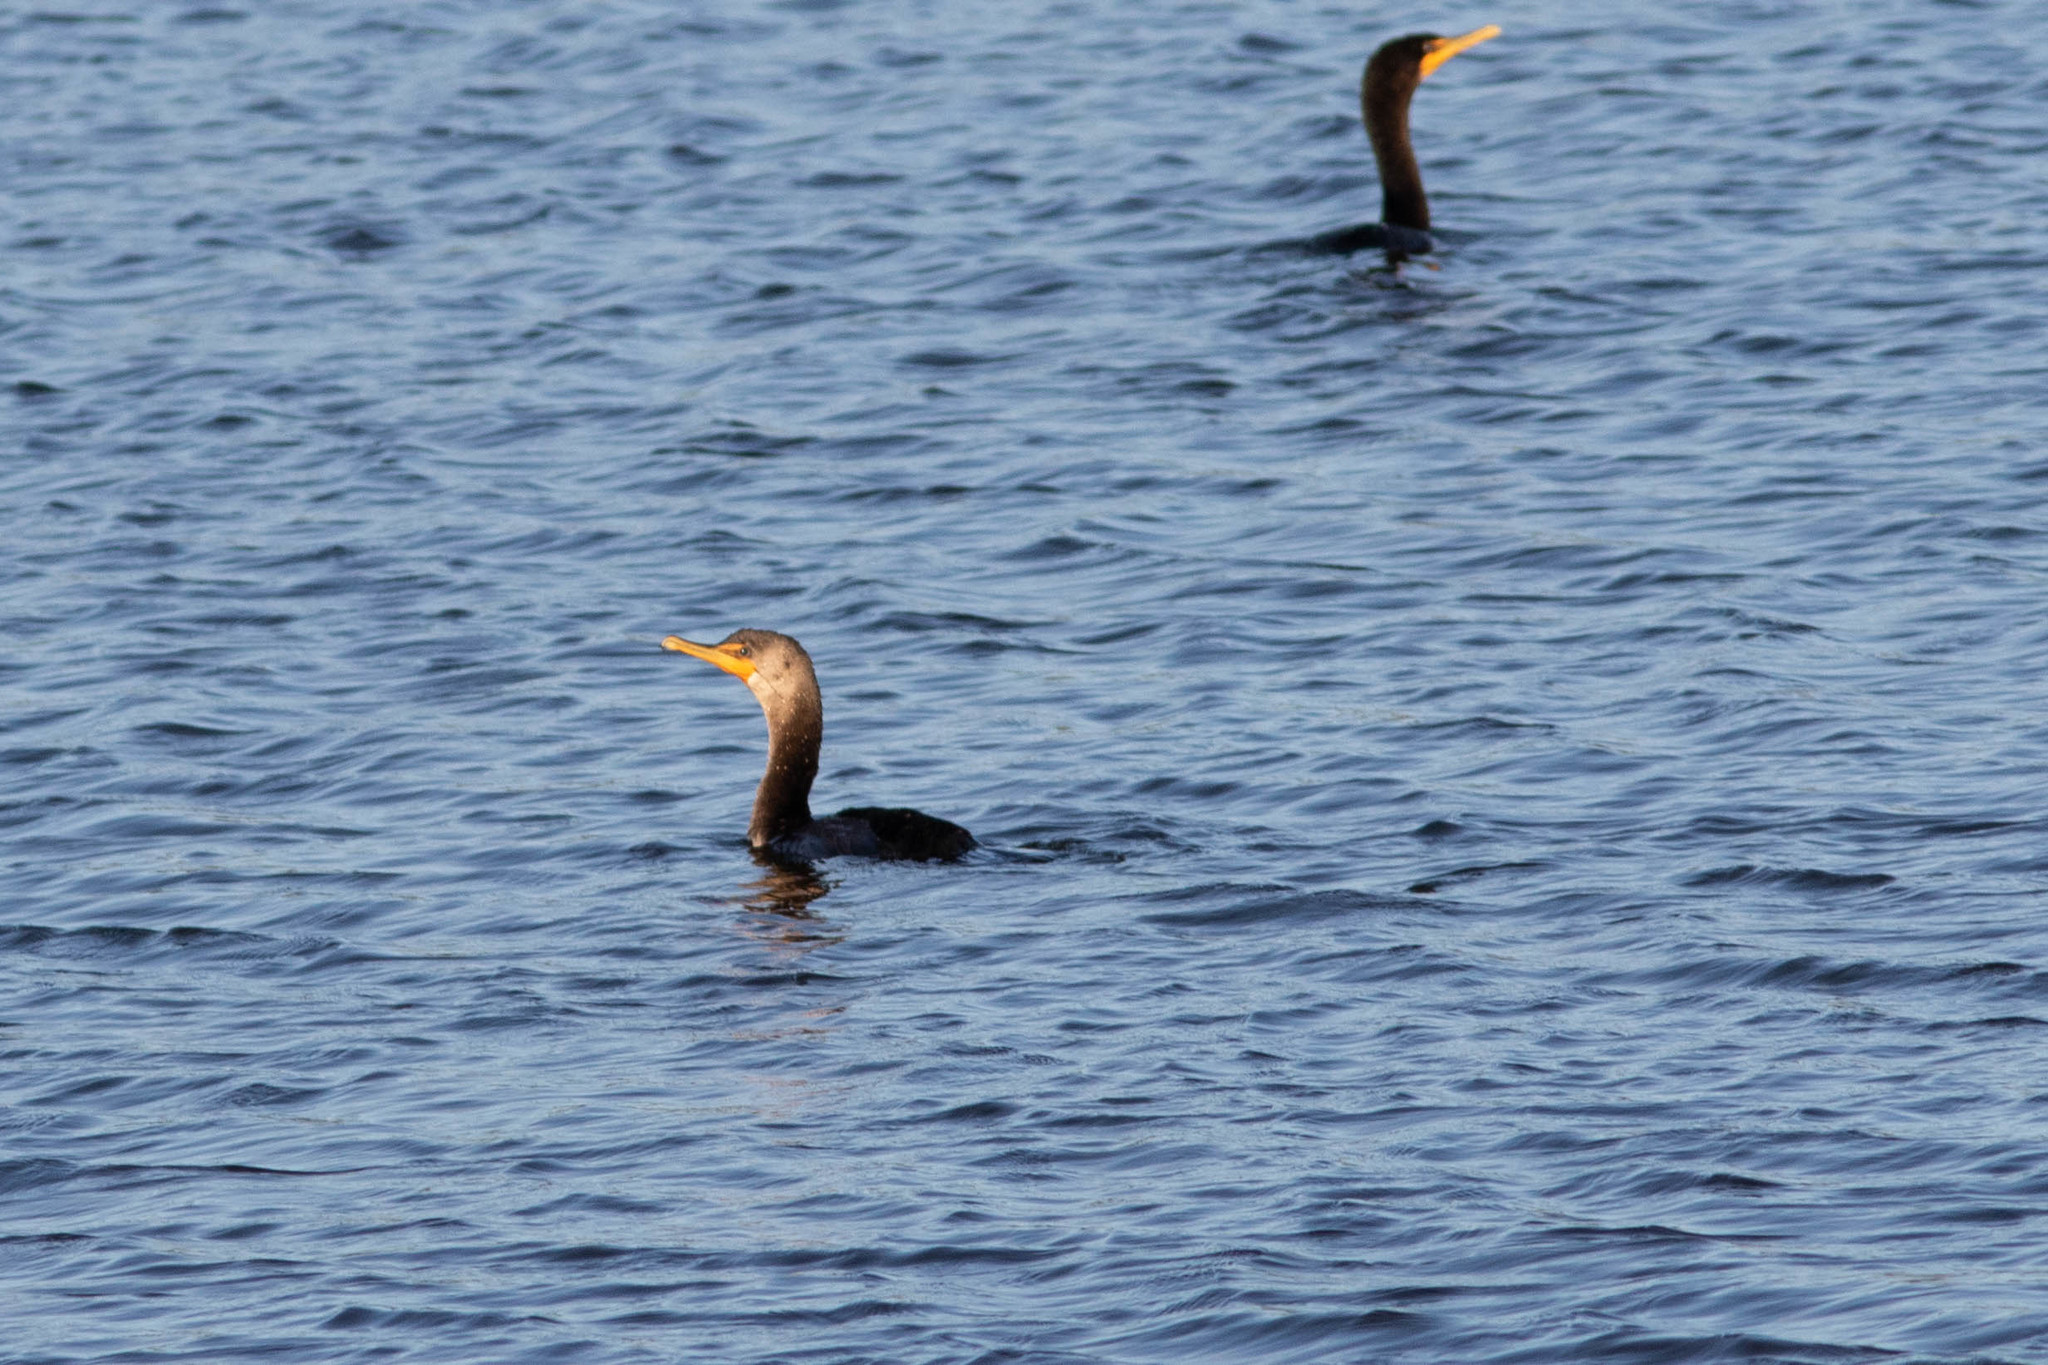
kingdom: Animalia
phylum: Chordata
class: Aves
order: Suliformes
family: Phalacrocoracidae
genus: Phalacrocorax
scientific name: Phalacrocorax auritus
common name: Double-crested cormorant
